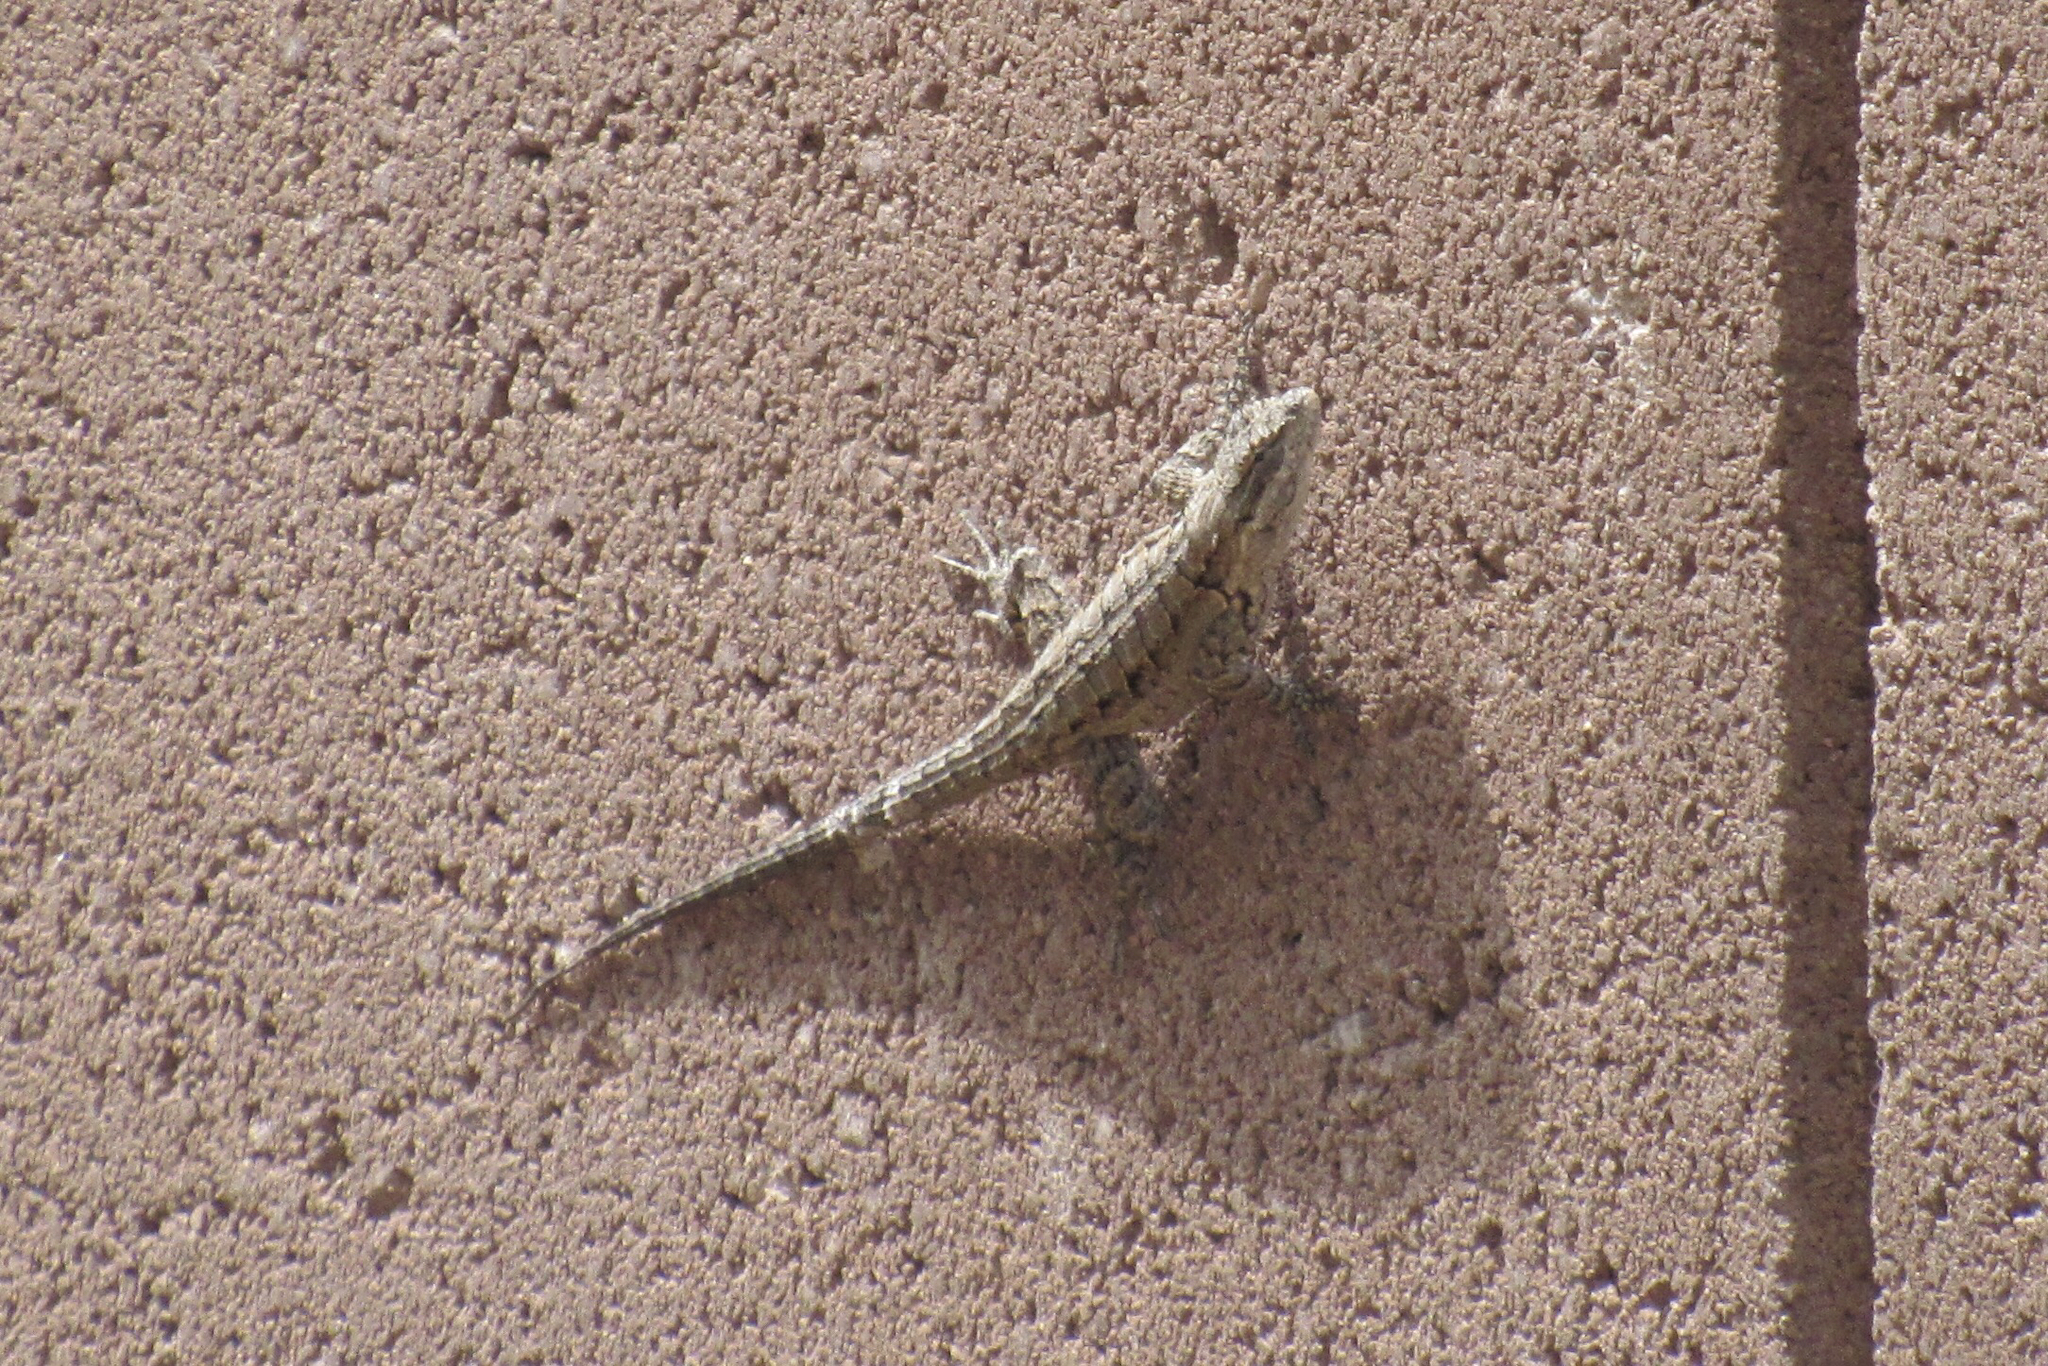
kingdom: Animalia
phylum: Chordata
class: Squamata
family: Phrynosomatidae
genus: Urosaurus
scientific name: Urosaurus ornatus
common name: Ornate tree lizard
